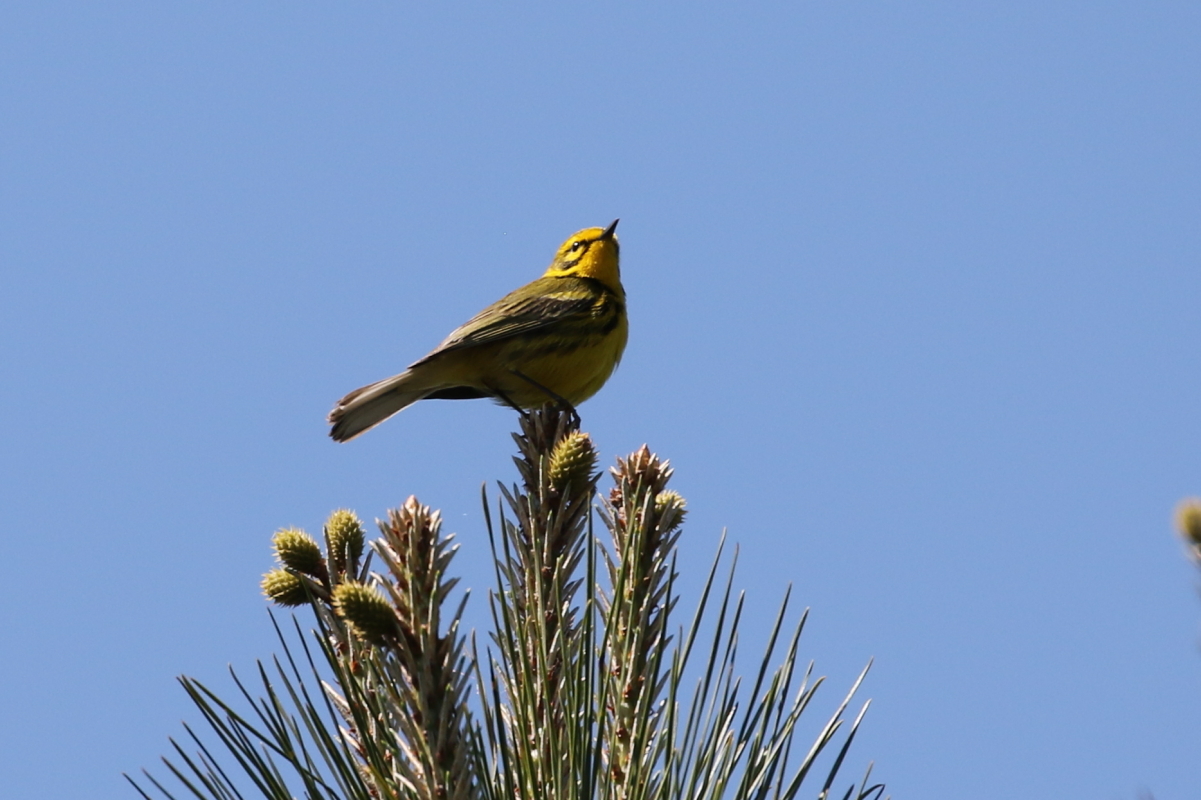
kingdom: Animalia
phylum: Chordata
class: Aves
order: Passeriformes
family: Parulidae
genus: Setophaga
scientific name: Setophaga discolor
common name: Prairie warbler
